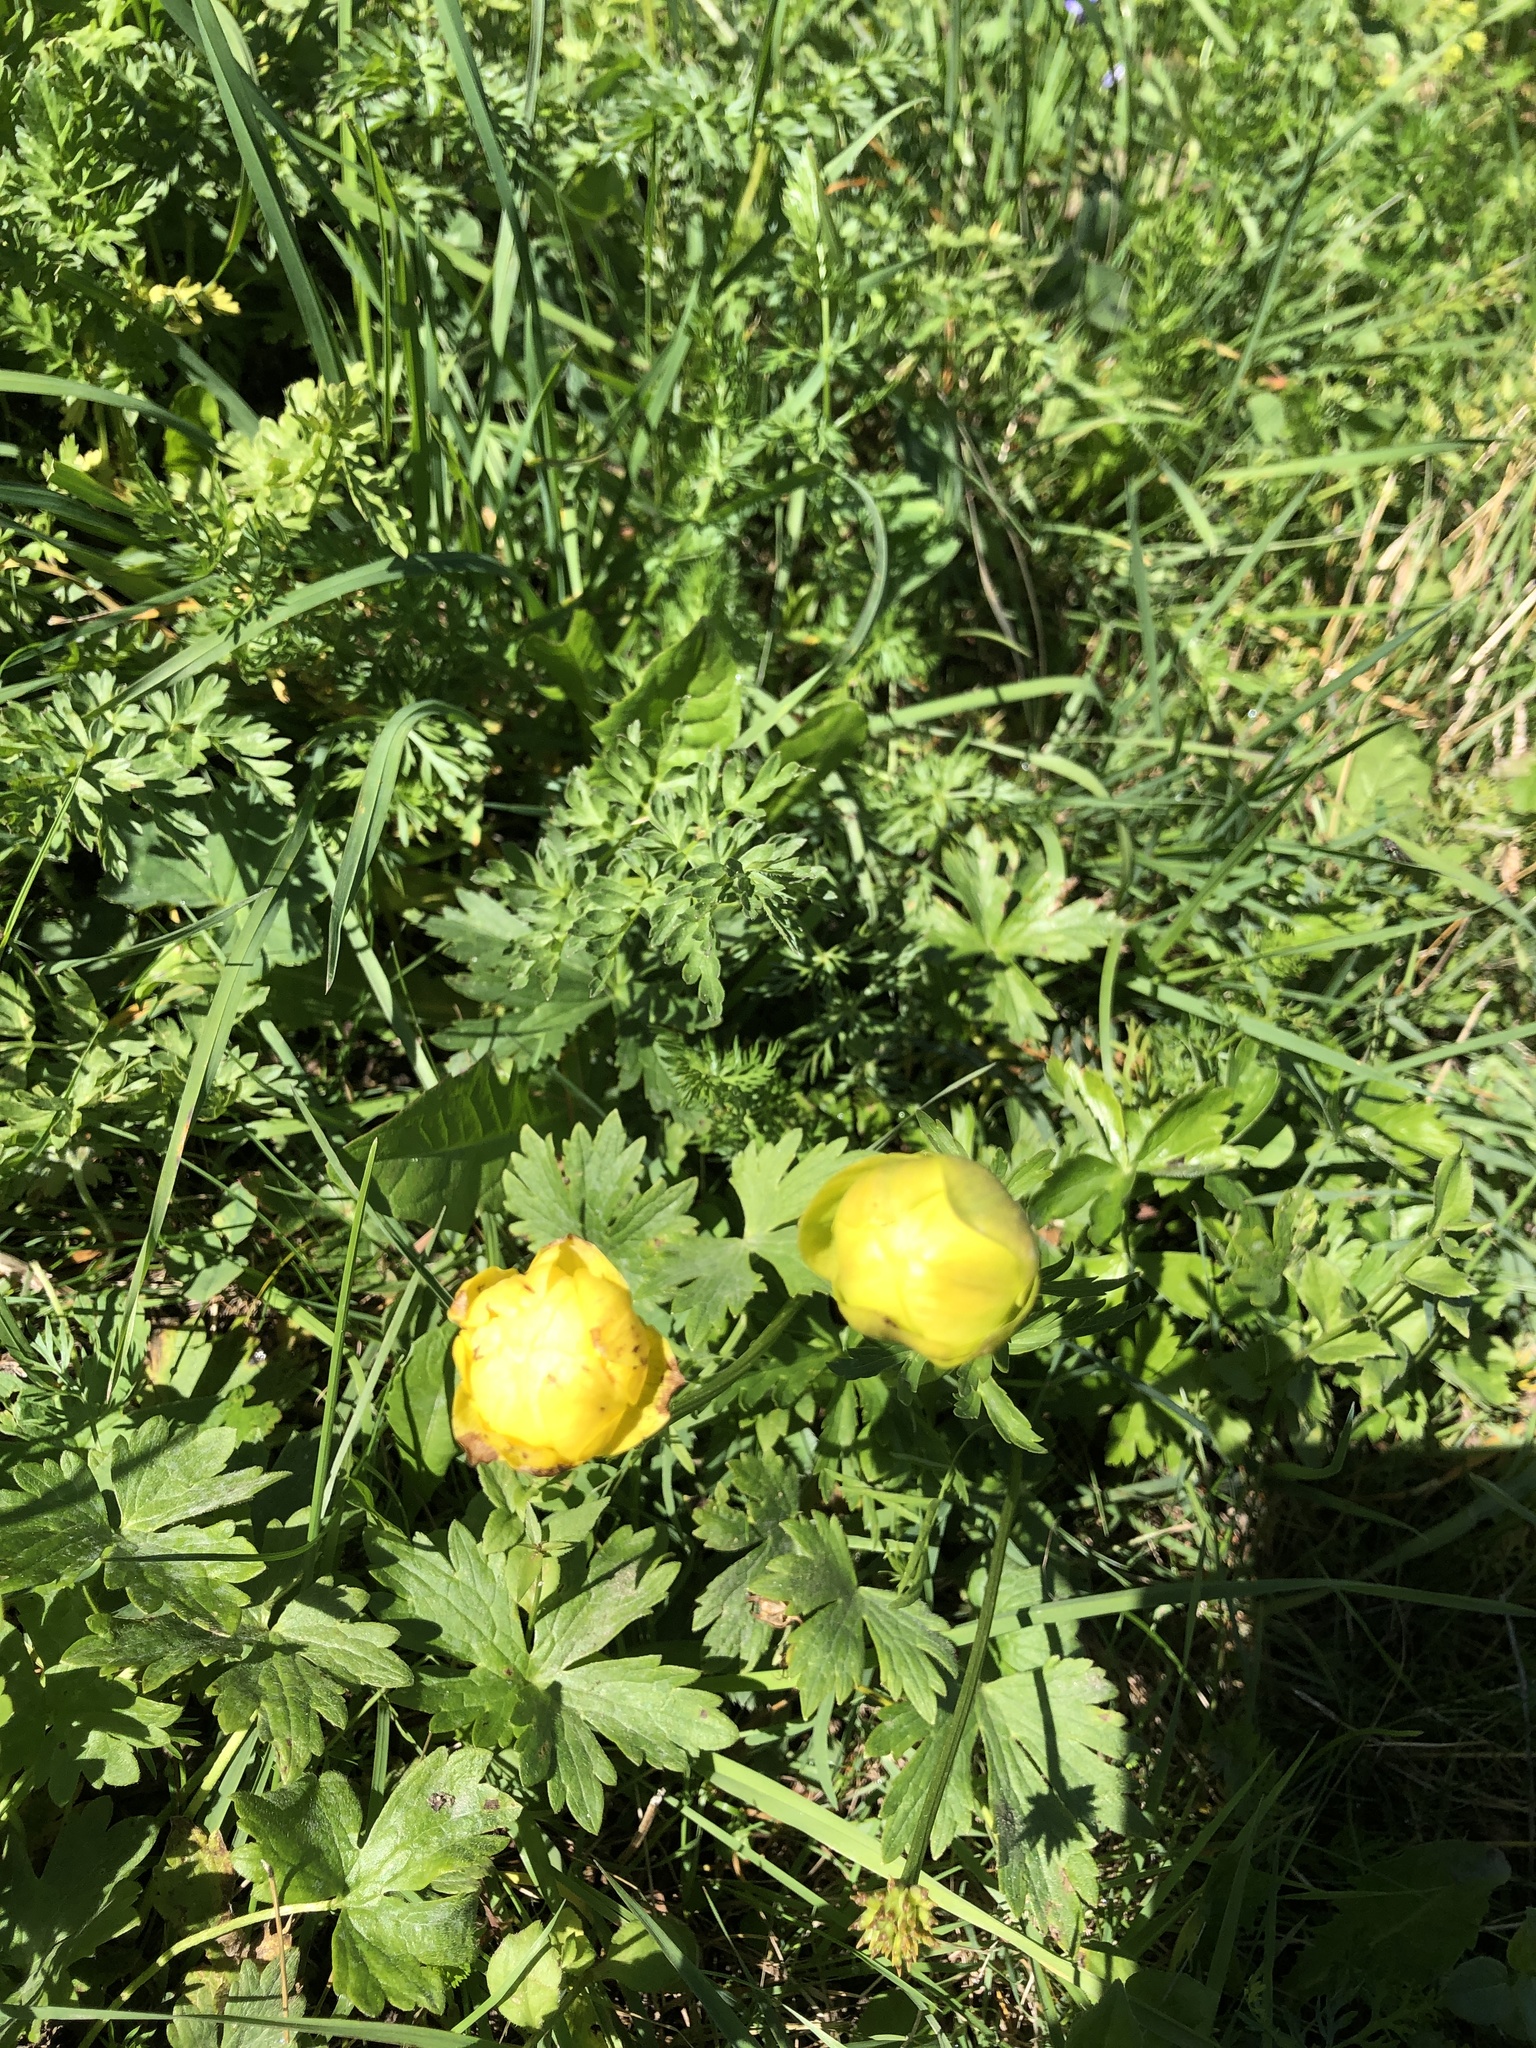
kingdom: Plantae
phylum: Tracheophyta
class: Magnoliopsida
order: Ranunculales
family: Ranunculaceae
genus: Trollius
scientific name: Trollius europaeus
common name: European globeflower
